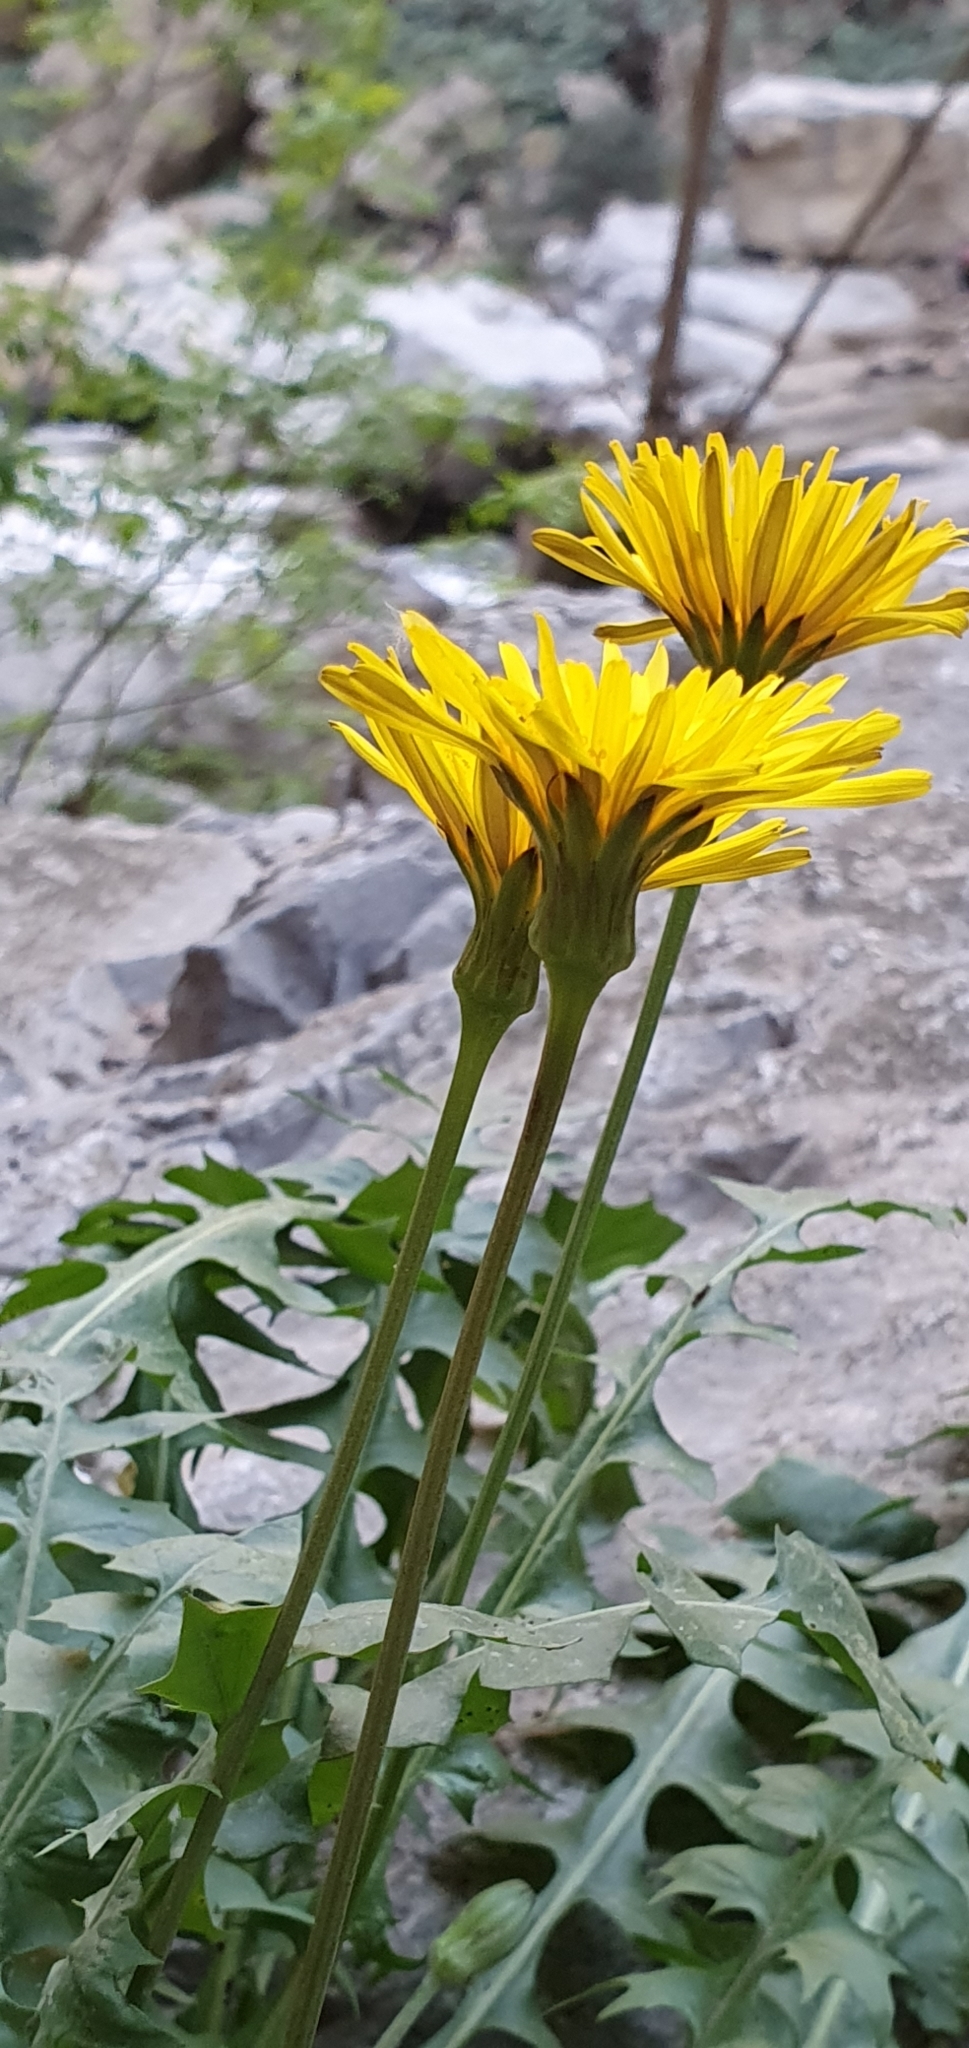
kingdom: Plantae
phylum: Tracheophyta
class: Magnoliopsida
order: Asterales
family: Asteraceae
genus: Hyoseris
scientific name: Hyoseris radiata
